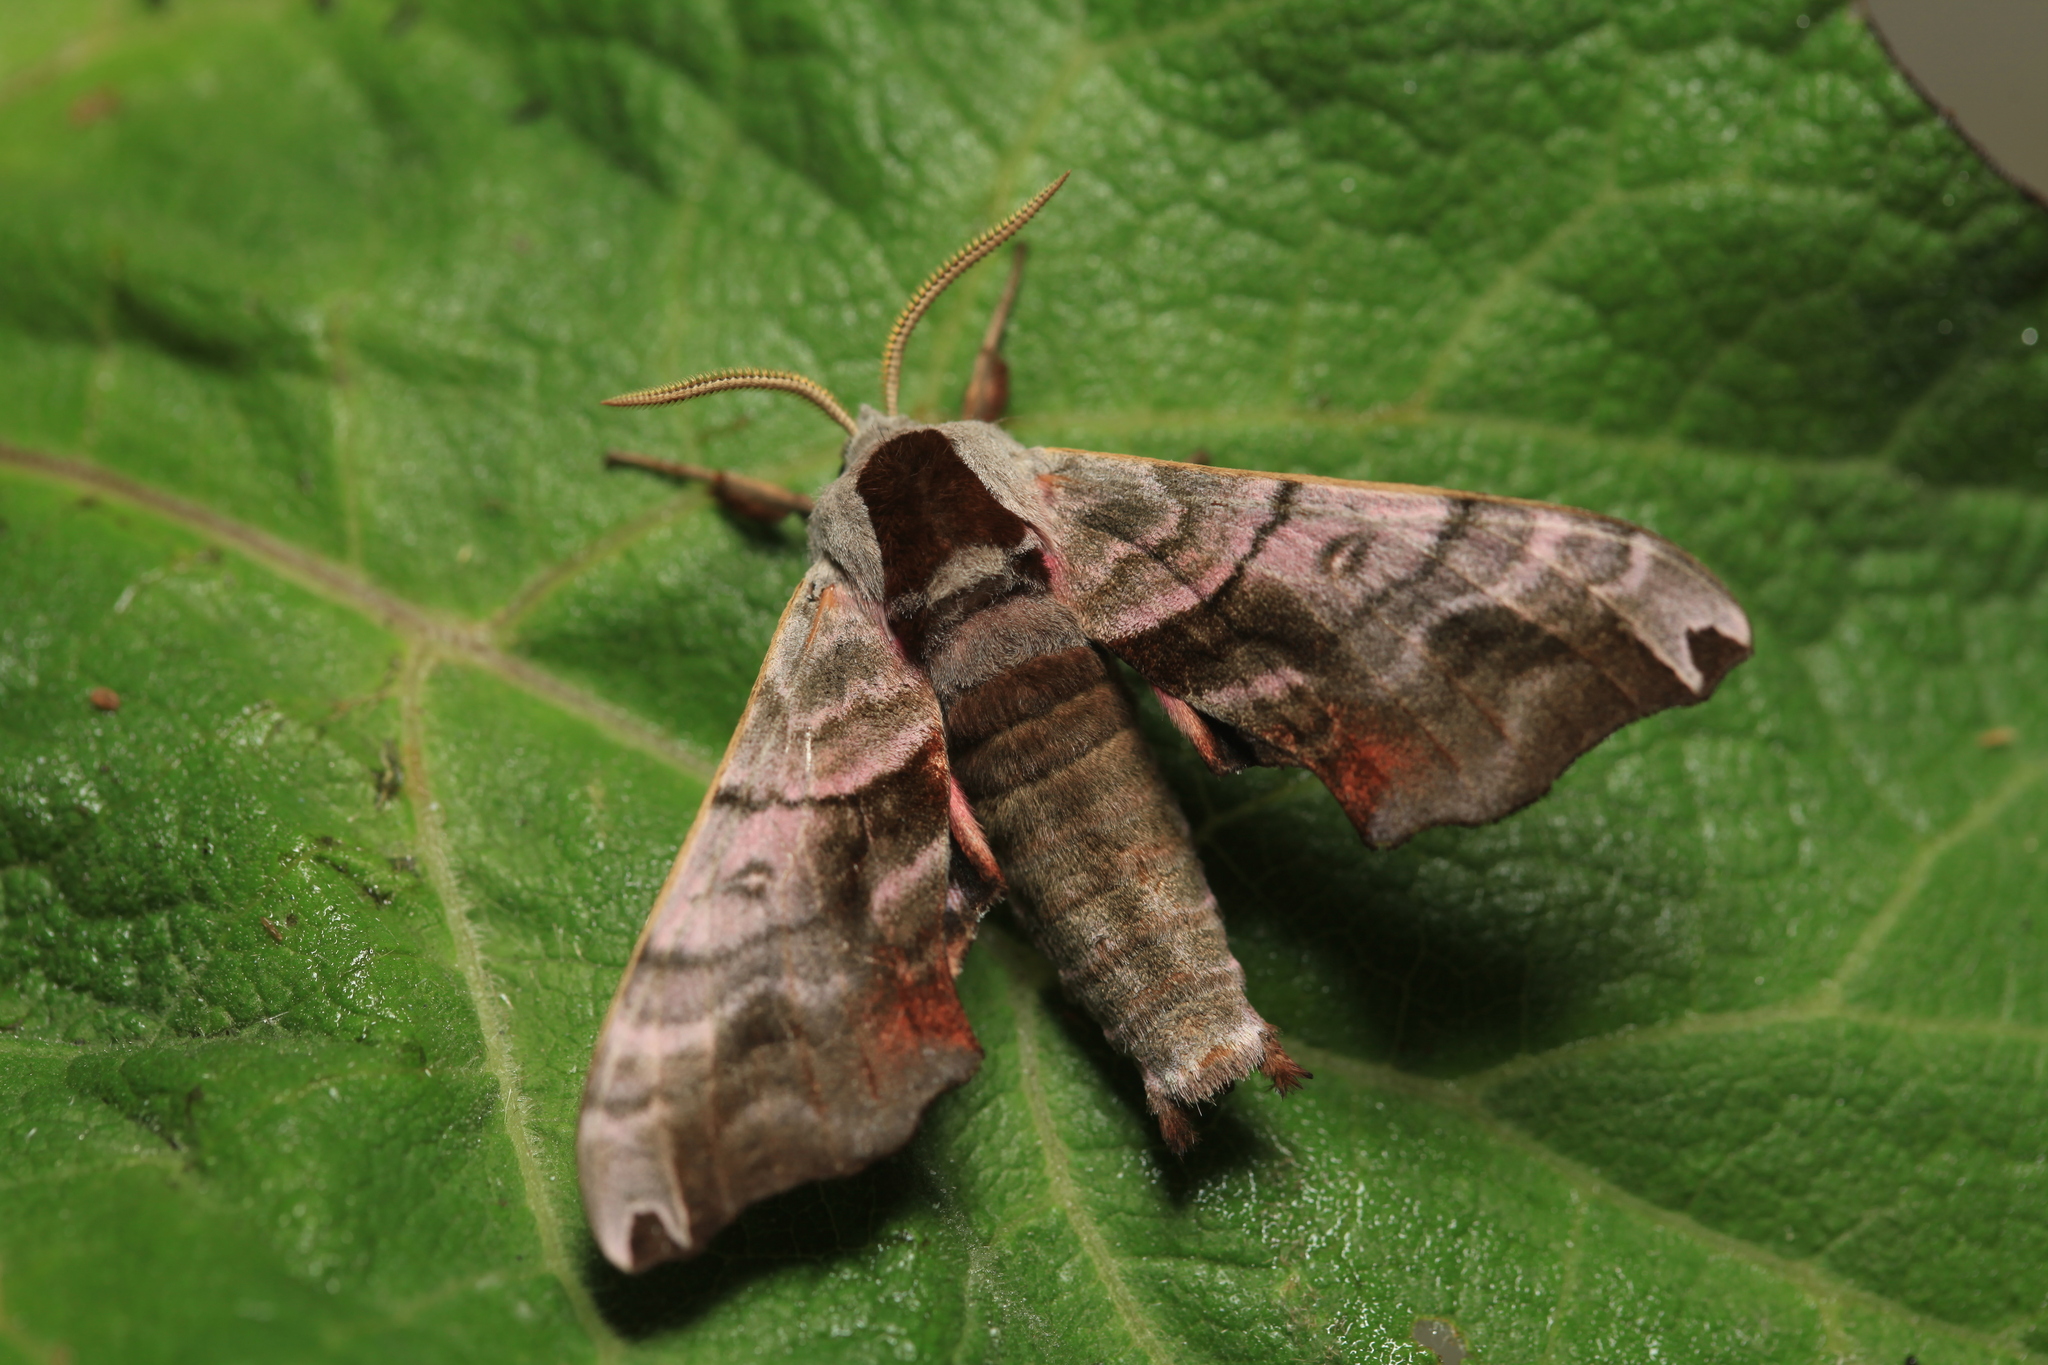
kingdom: Animalia
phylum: Arthropoda
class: Insecta
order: Lepidoptera
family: Sphingidae
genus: Smerinthus
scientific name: Smerinthus caecus
